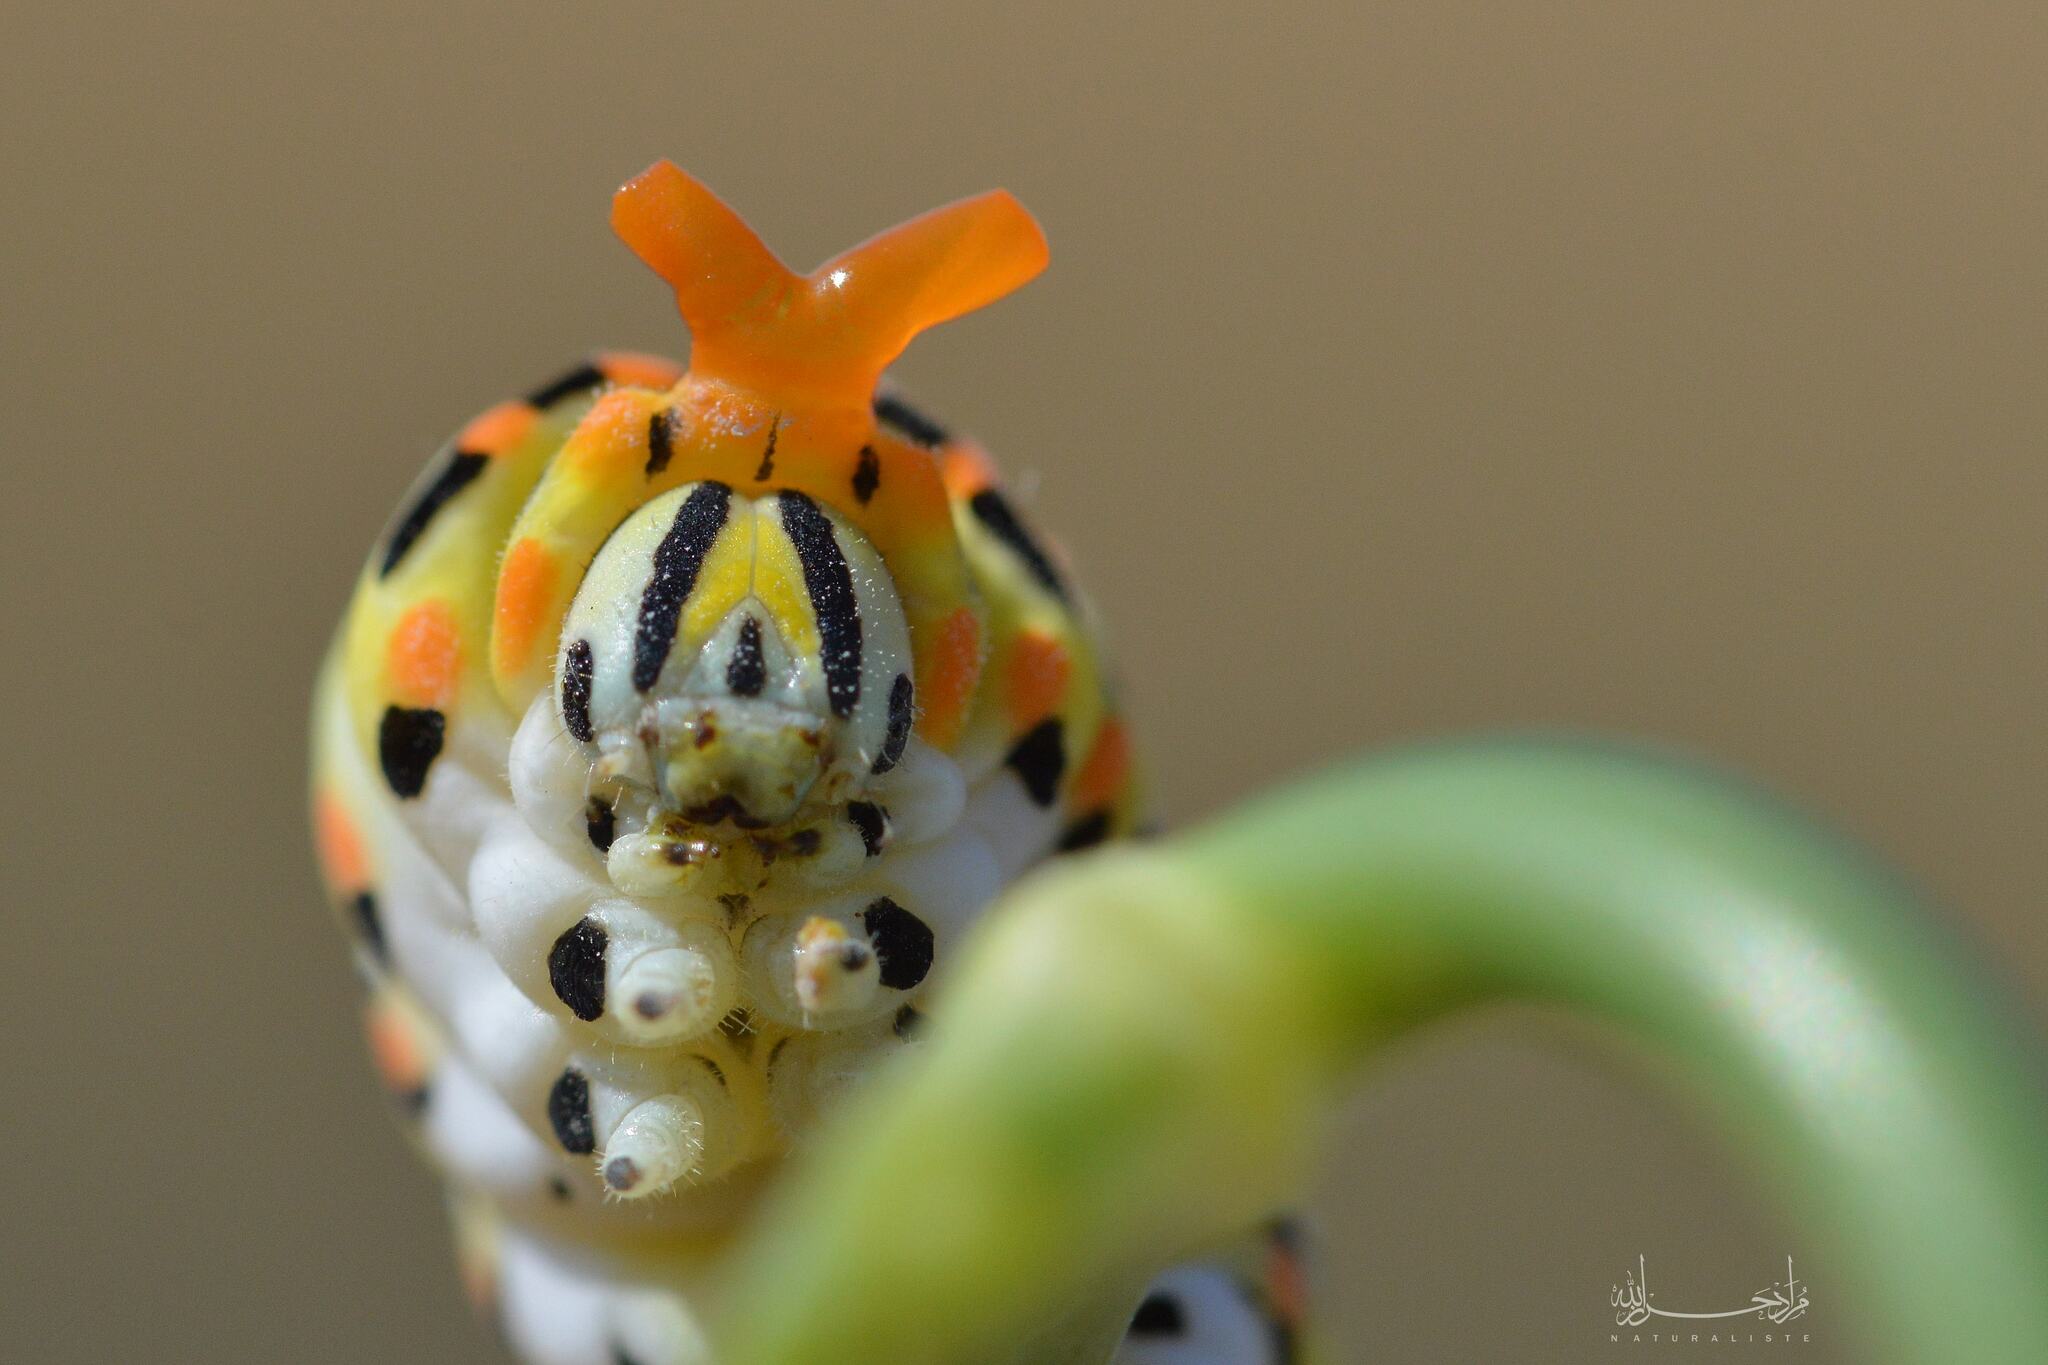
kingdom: Animalia
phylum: Arthropoda
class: Insecta
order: Lepidoptera
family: Papilionidae
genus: Papilio
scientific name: Papilio machaon
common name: Swallowtail
